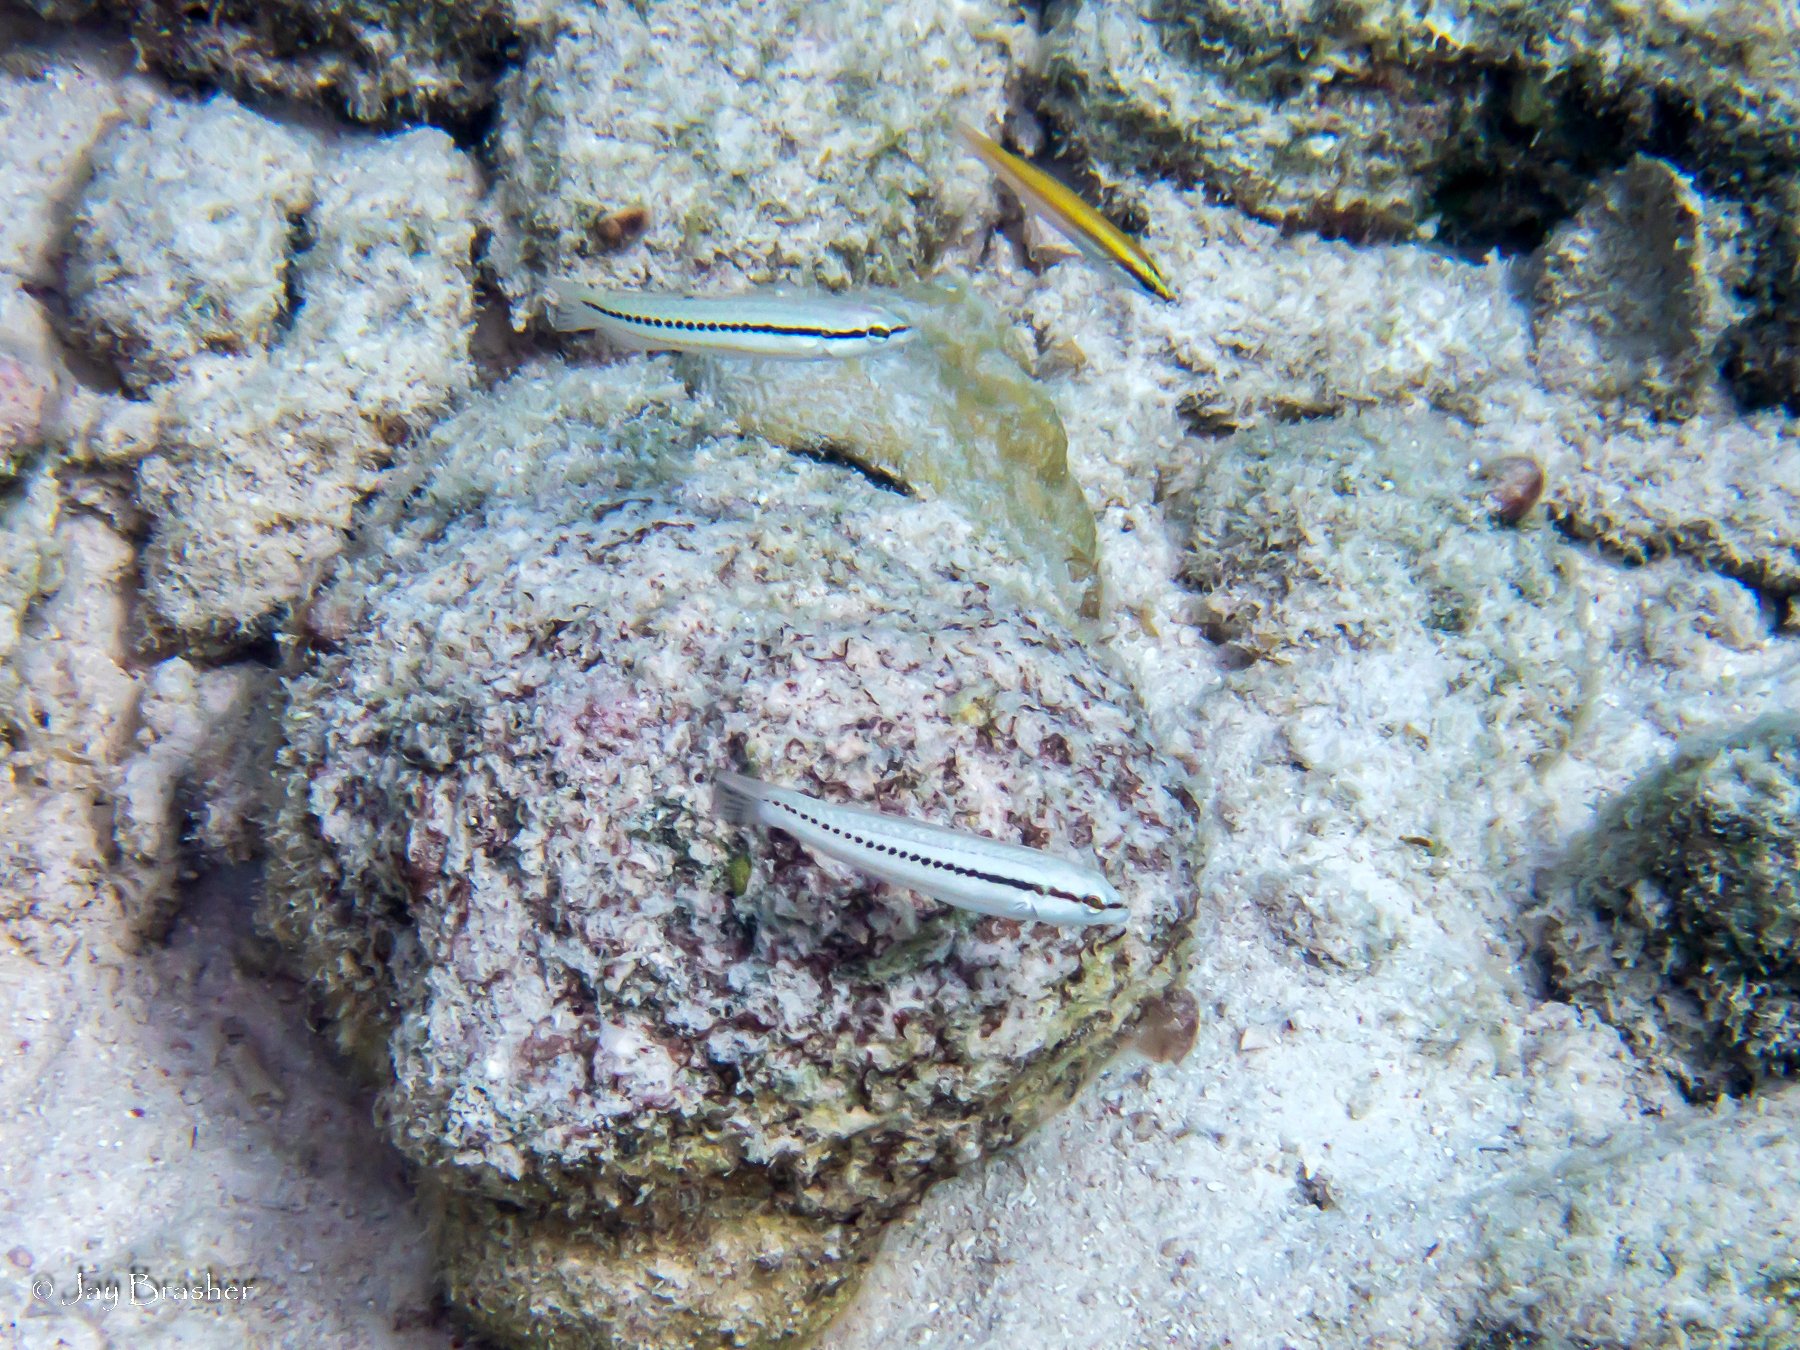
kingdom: Animalia
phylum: Chordata
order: Perciformes
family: Labridae
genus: Halichoeres
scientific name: Halichoeres pictus
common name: Rainbow wrasse
